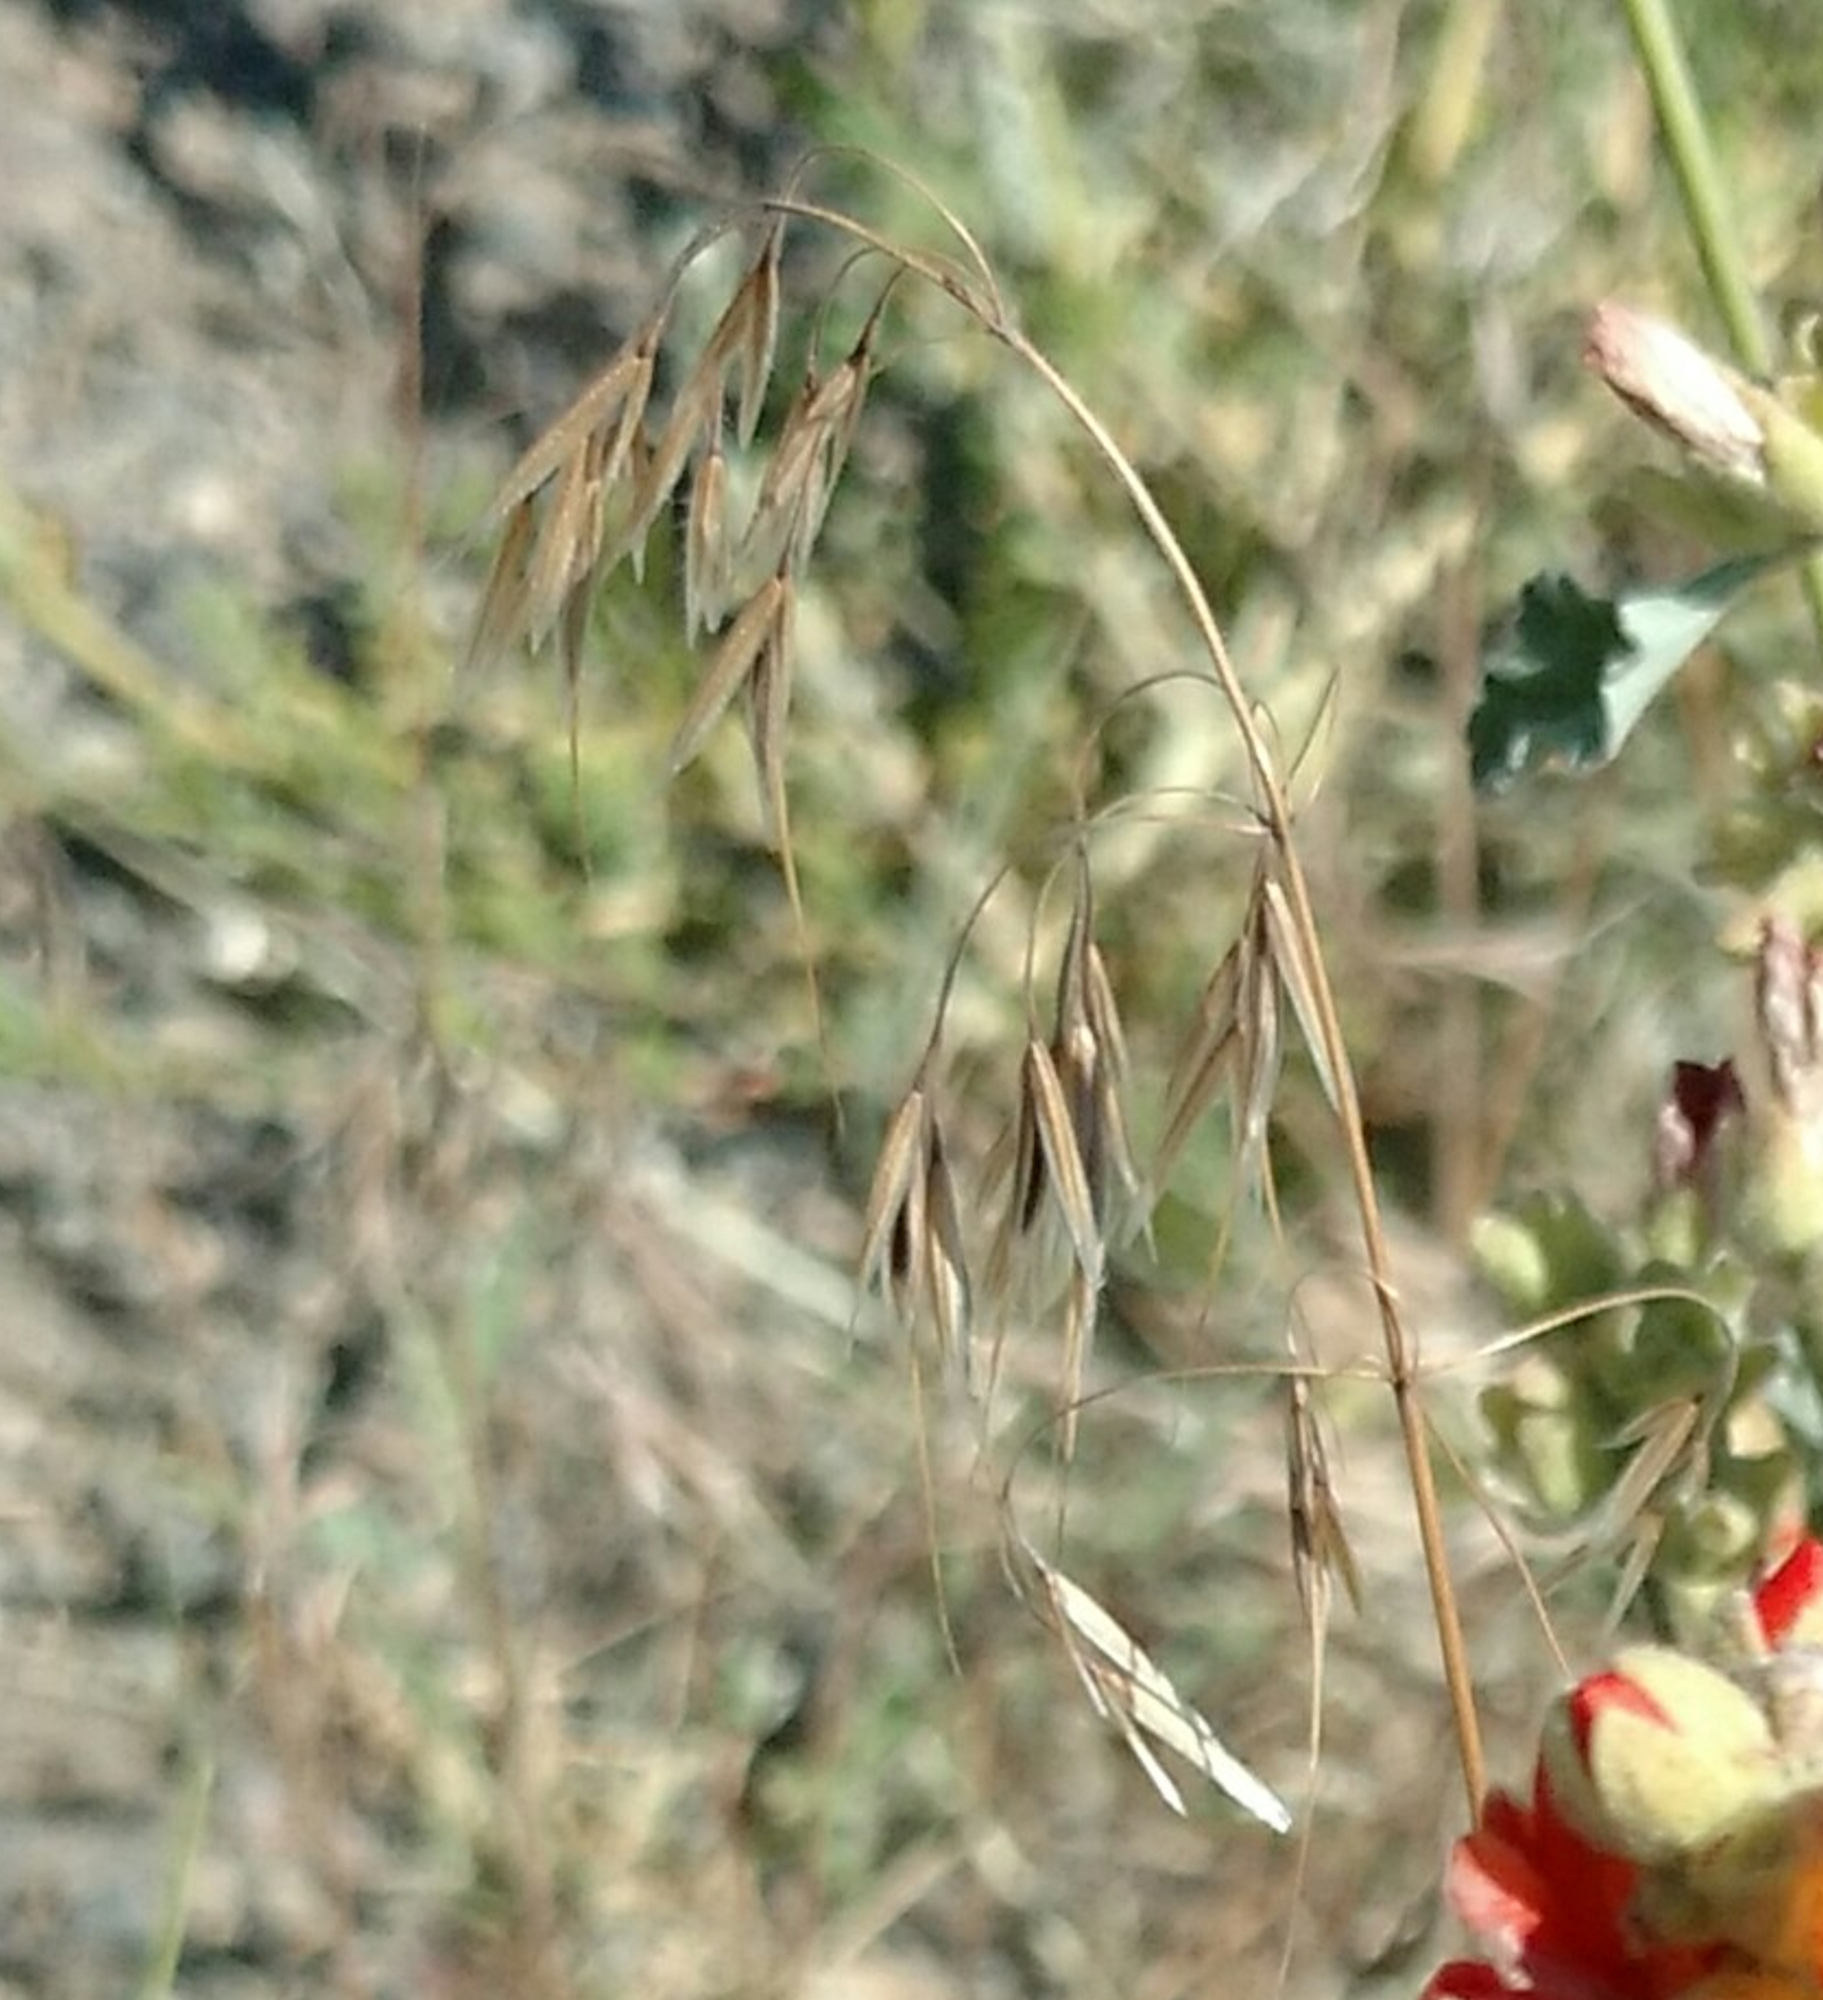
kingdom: Plantae
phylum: Tracheophyta
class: Liliopsida
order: Poales
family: Poaceae
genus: Bromus
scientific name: Bromus tectorum
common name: Cheatgrass
